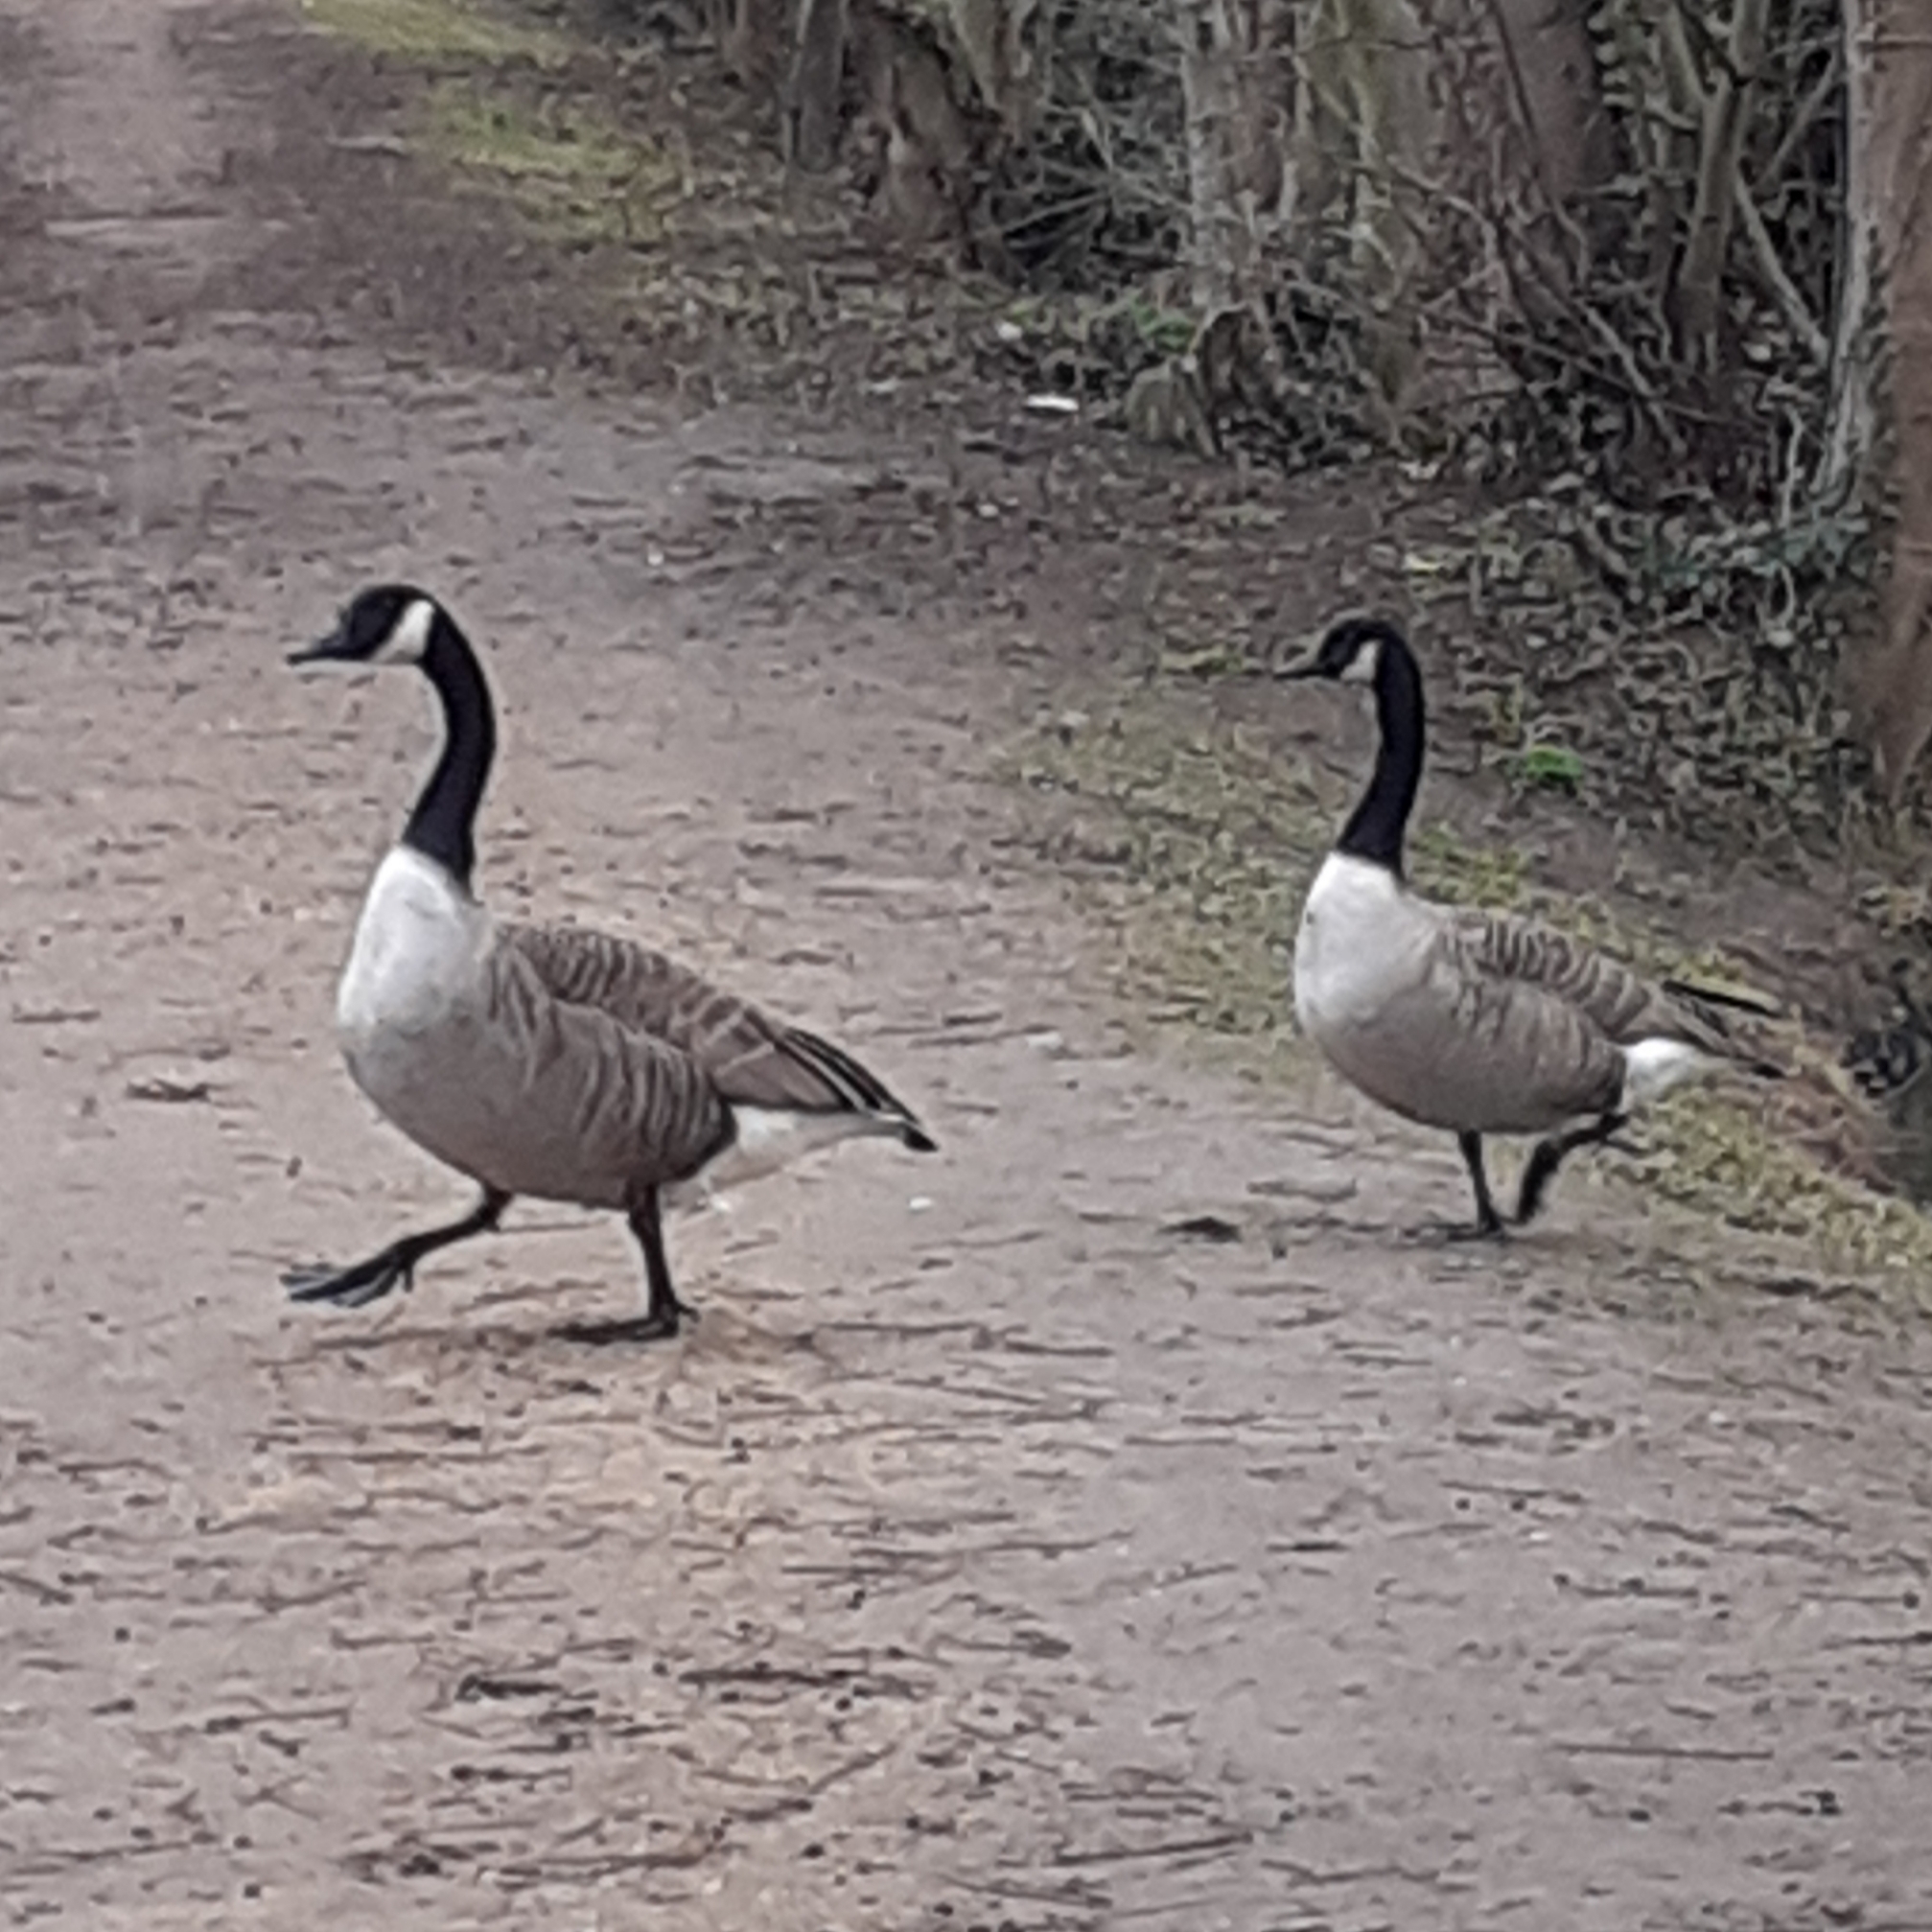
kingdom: Animalia
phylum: Chordata
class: Aves
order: Anseriformes
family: Anatidae
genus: Branta
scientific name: Branta canadensis
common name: Canada goose
